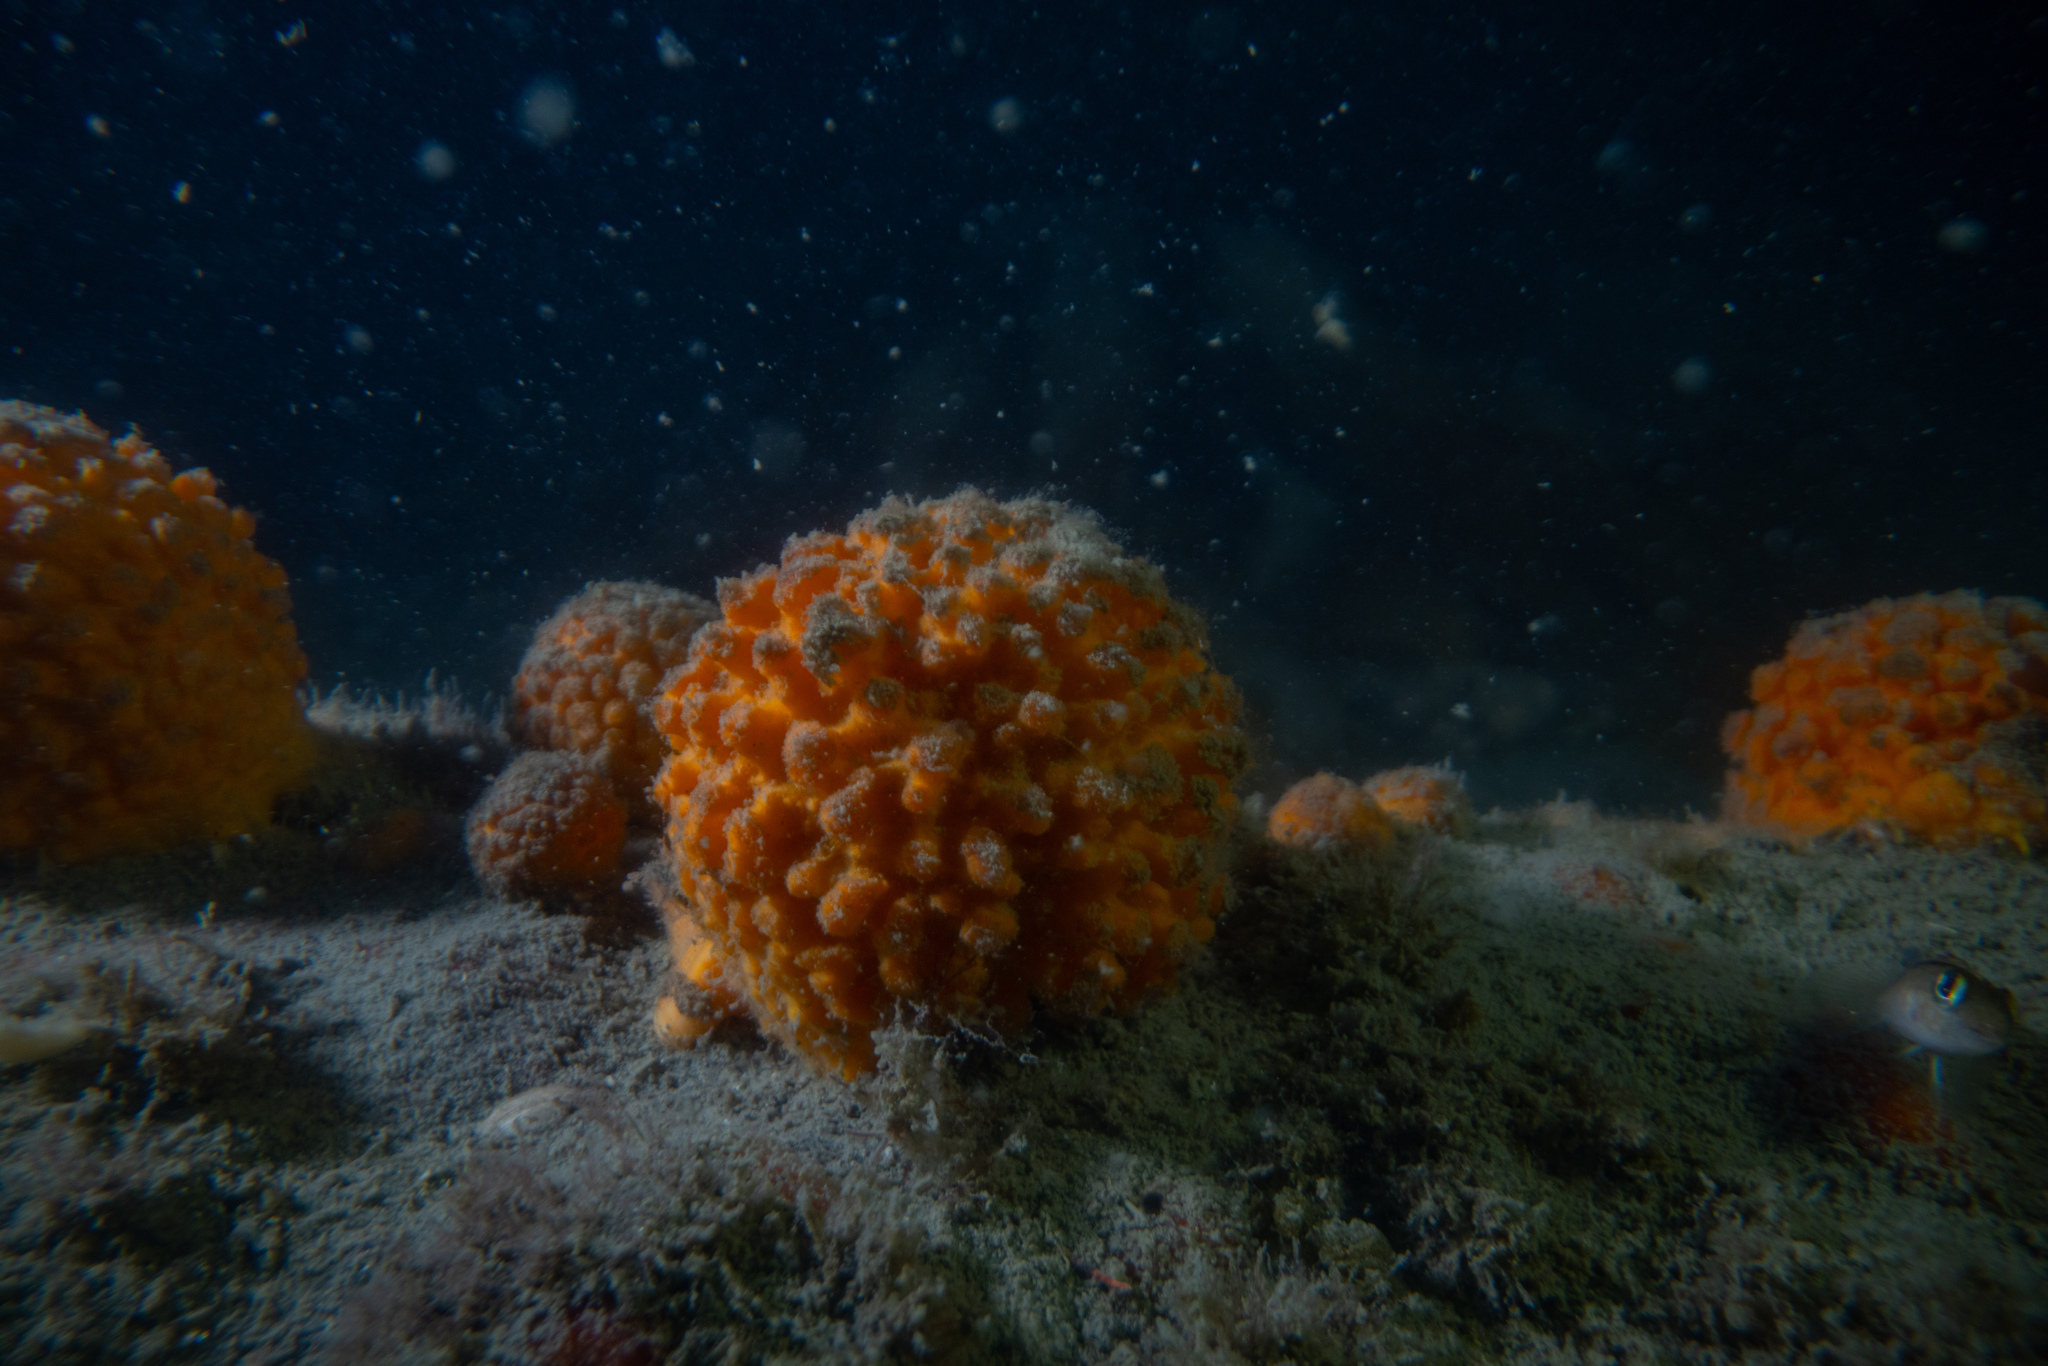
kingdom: Animalia
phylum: Porifera
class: Demospongiae
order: Tethyida
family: Tethyidae
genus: Tethya
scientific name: Tethya burtoni
